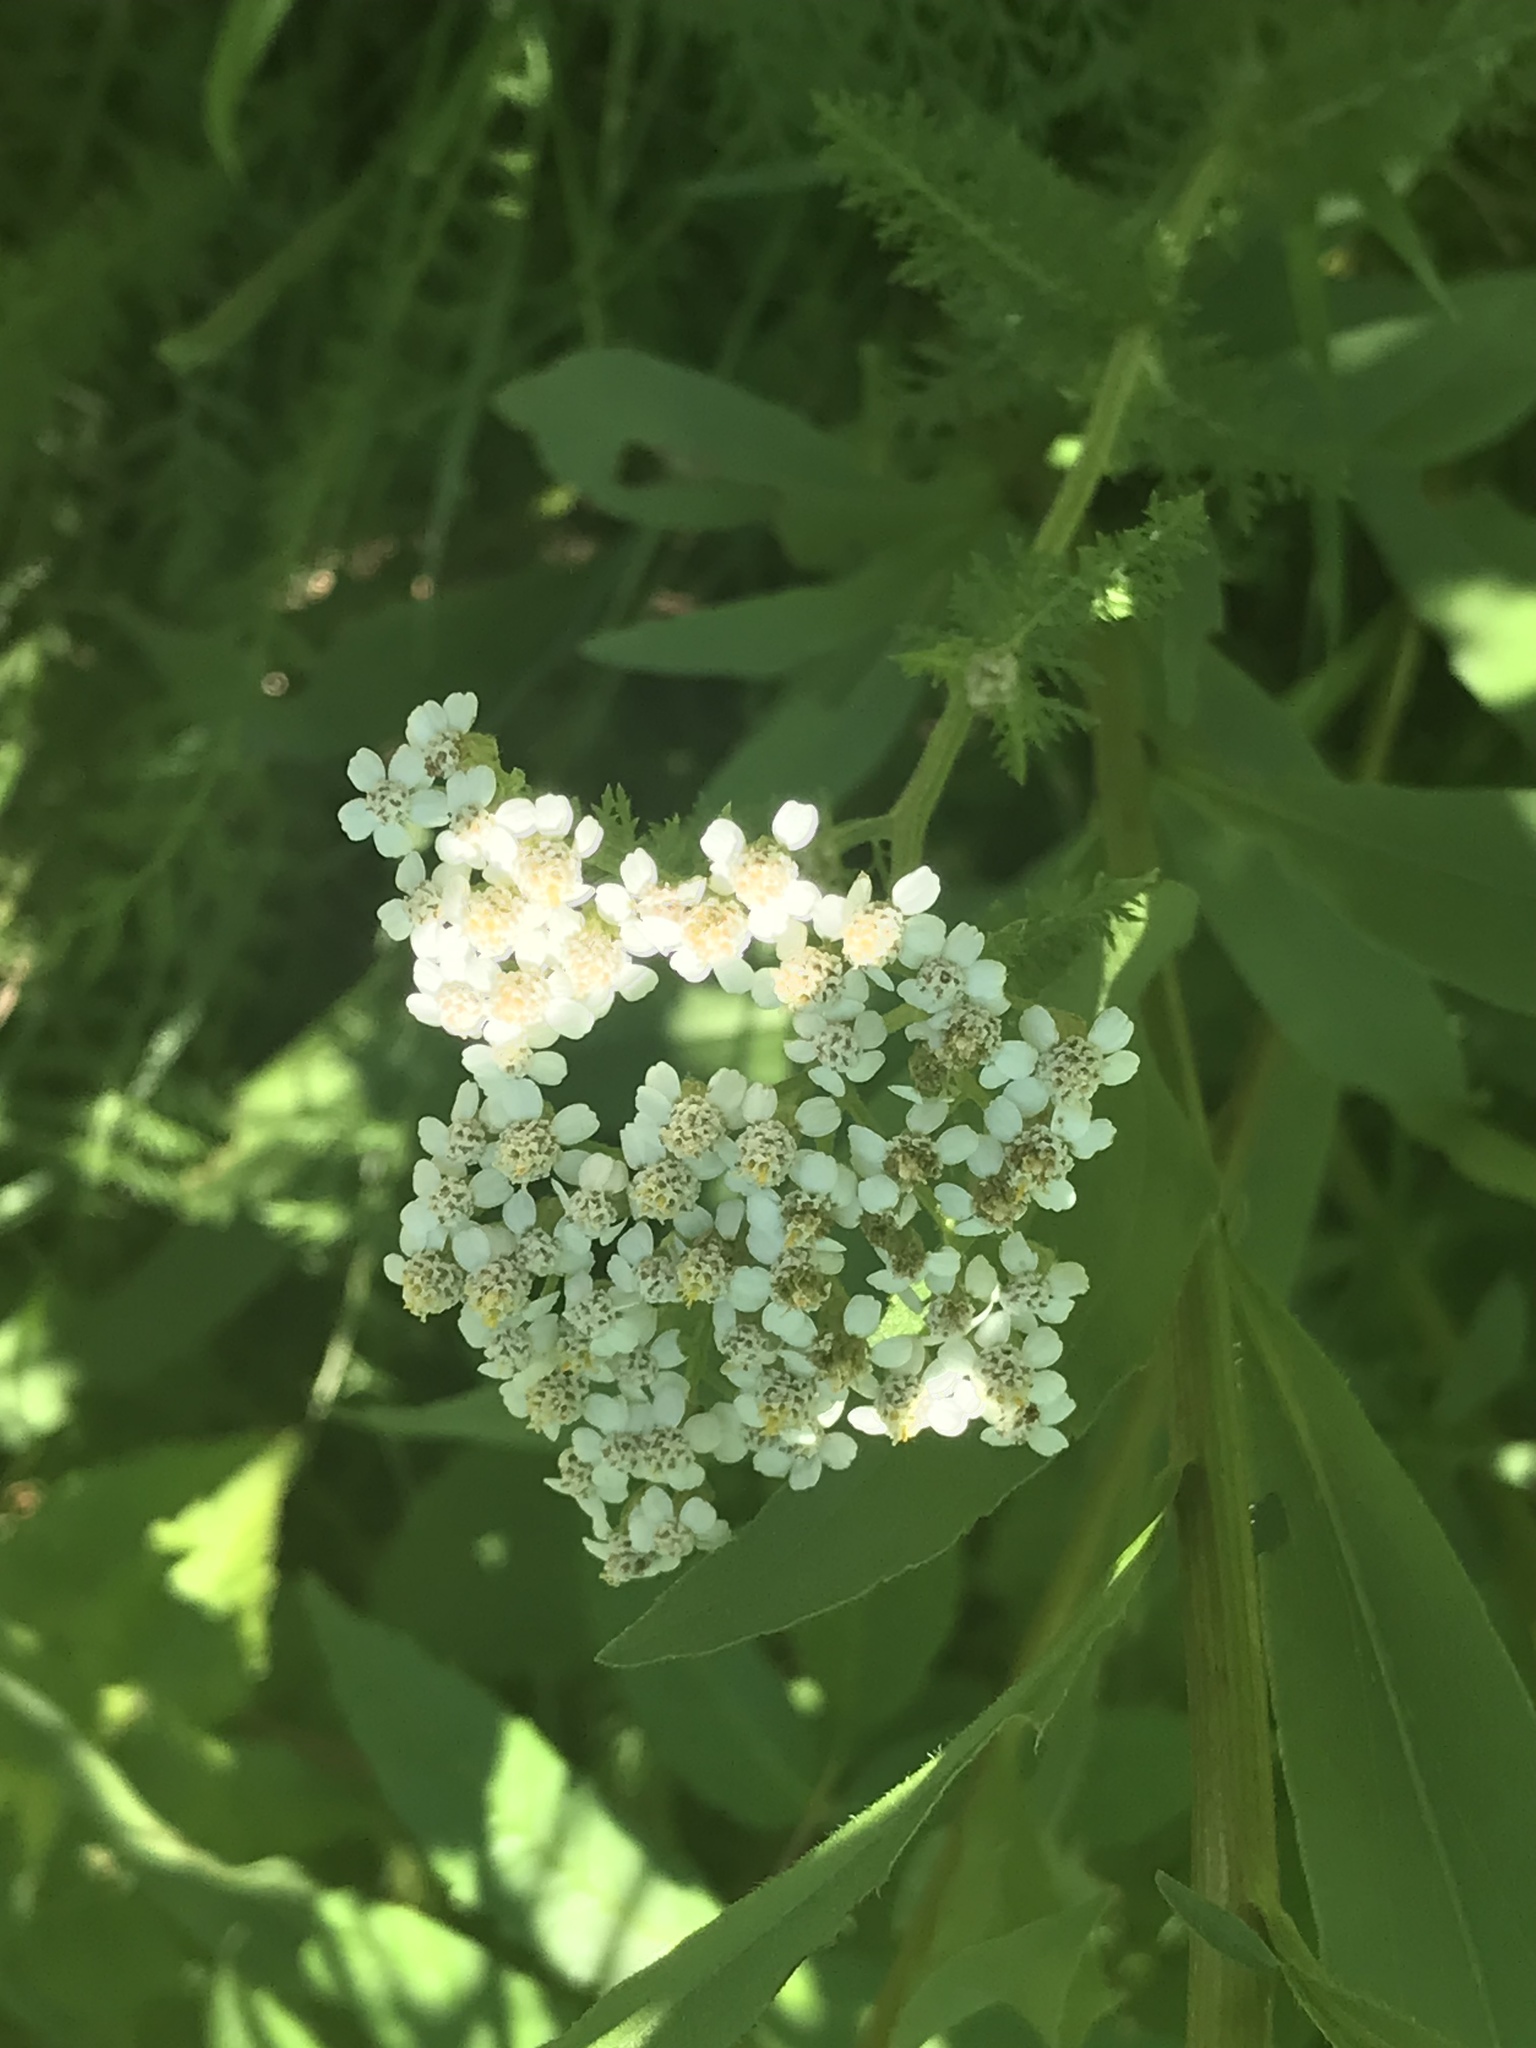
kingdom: Plantae
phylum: Tracheophyta
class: Magnoliopsida
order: Asterales
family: Asteraceae
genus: Achillea
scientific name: Achillea millefolium
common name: Yarrow
